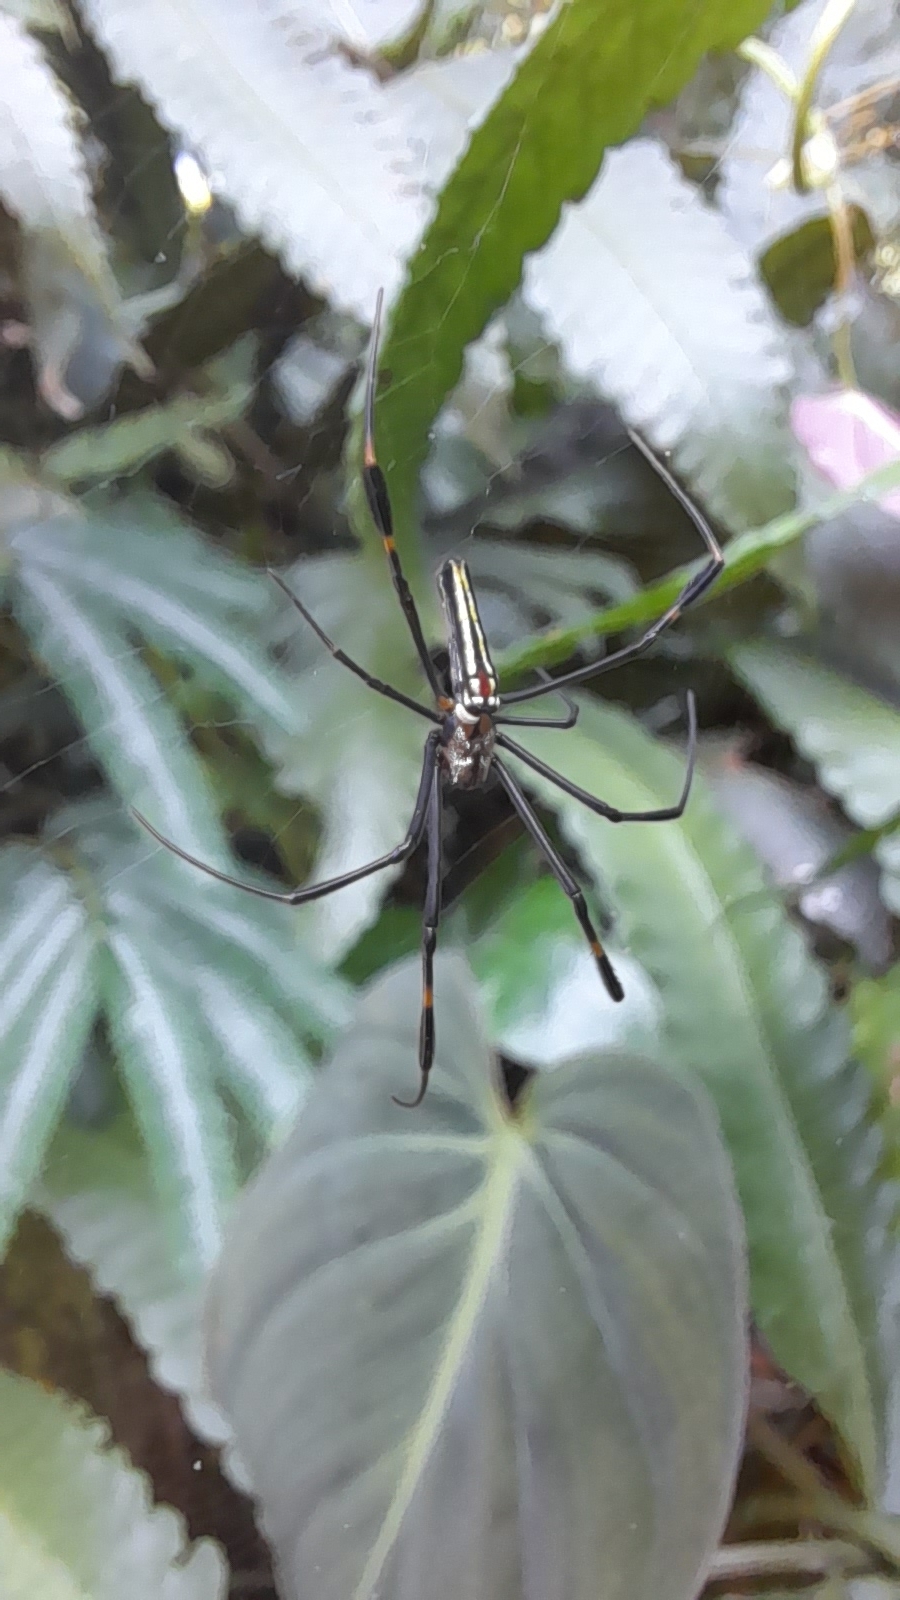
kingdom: Animalia
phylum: Arthropoda
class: Arachnida
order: Araneae
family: Araneidae
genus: Nephila
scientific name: Nephila pilipes
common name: Giant golden orb weaver
